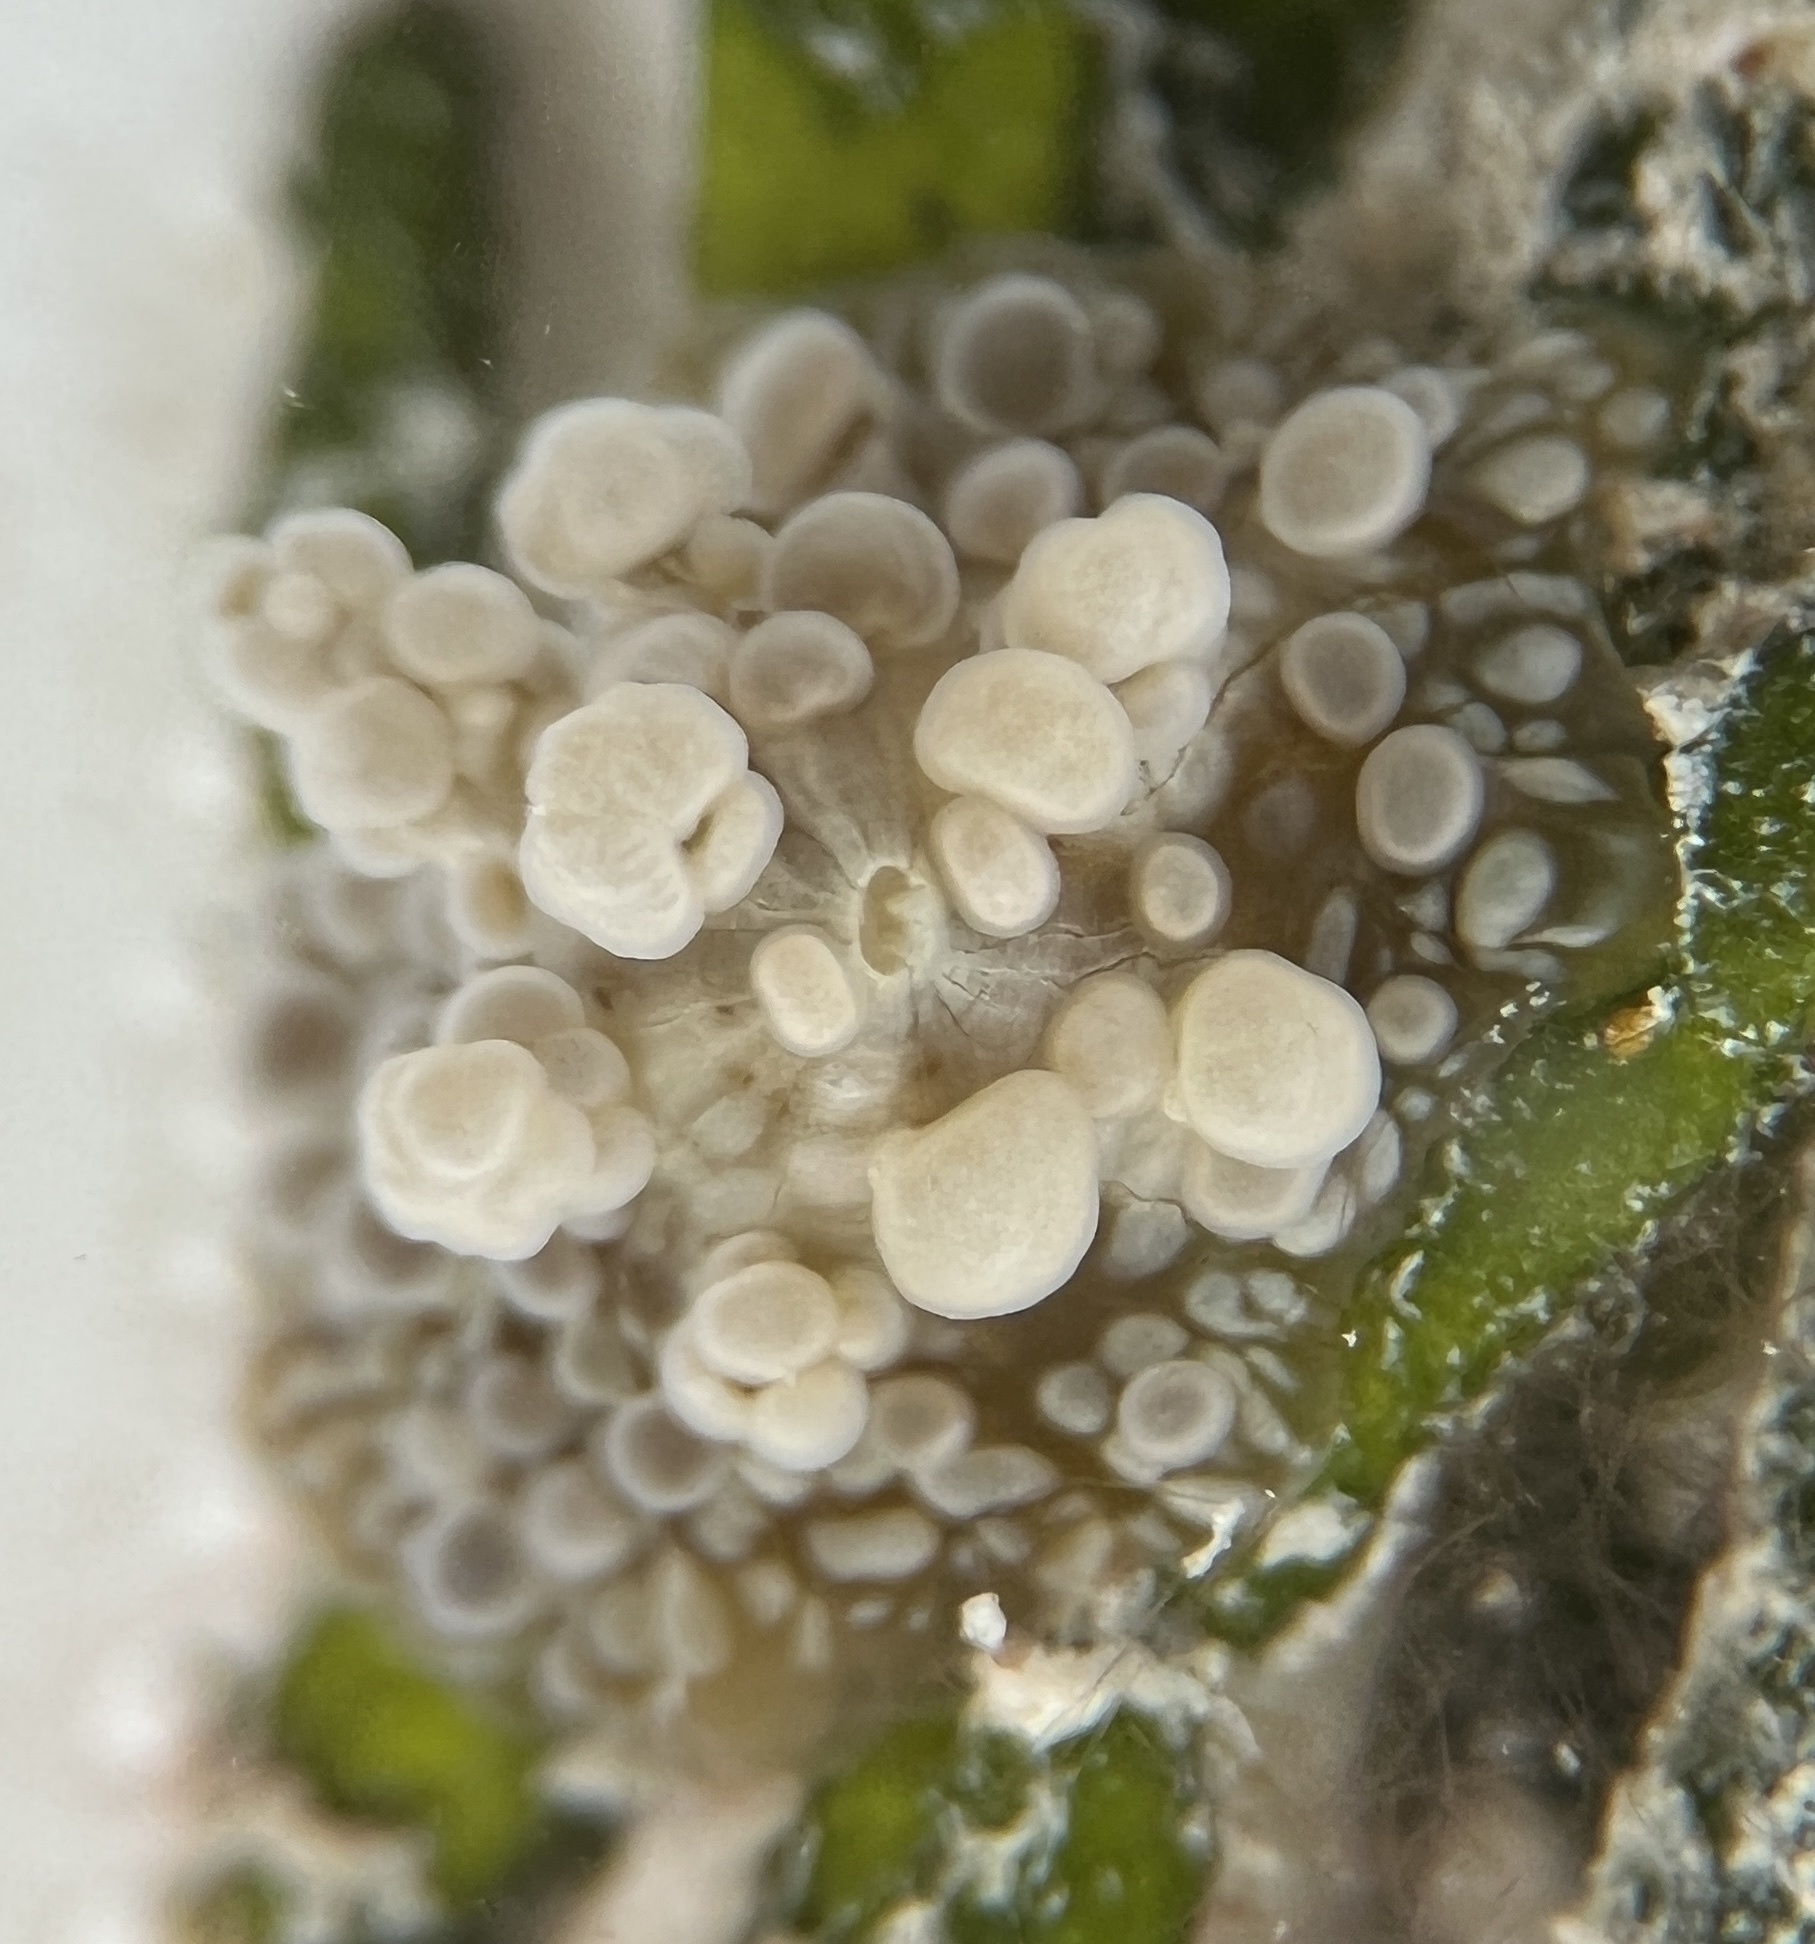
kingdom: Animalia
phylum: Cnidaria
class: Anthozoa
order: Actiniaria
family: Boloceroididae
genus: Bunodeopsis
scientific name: Bunodeopsis globulifera
